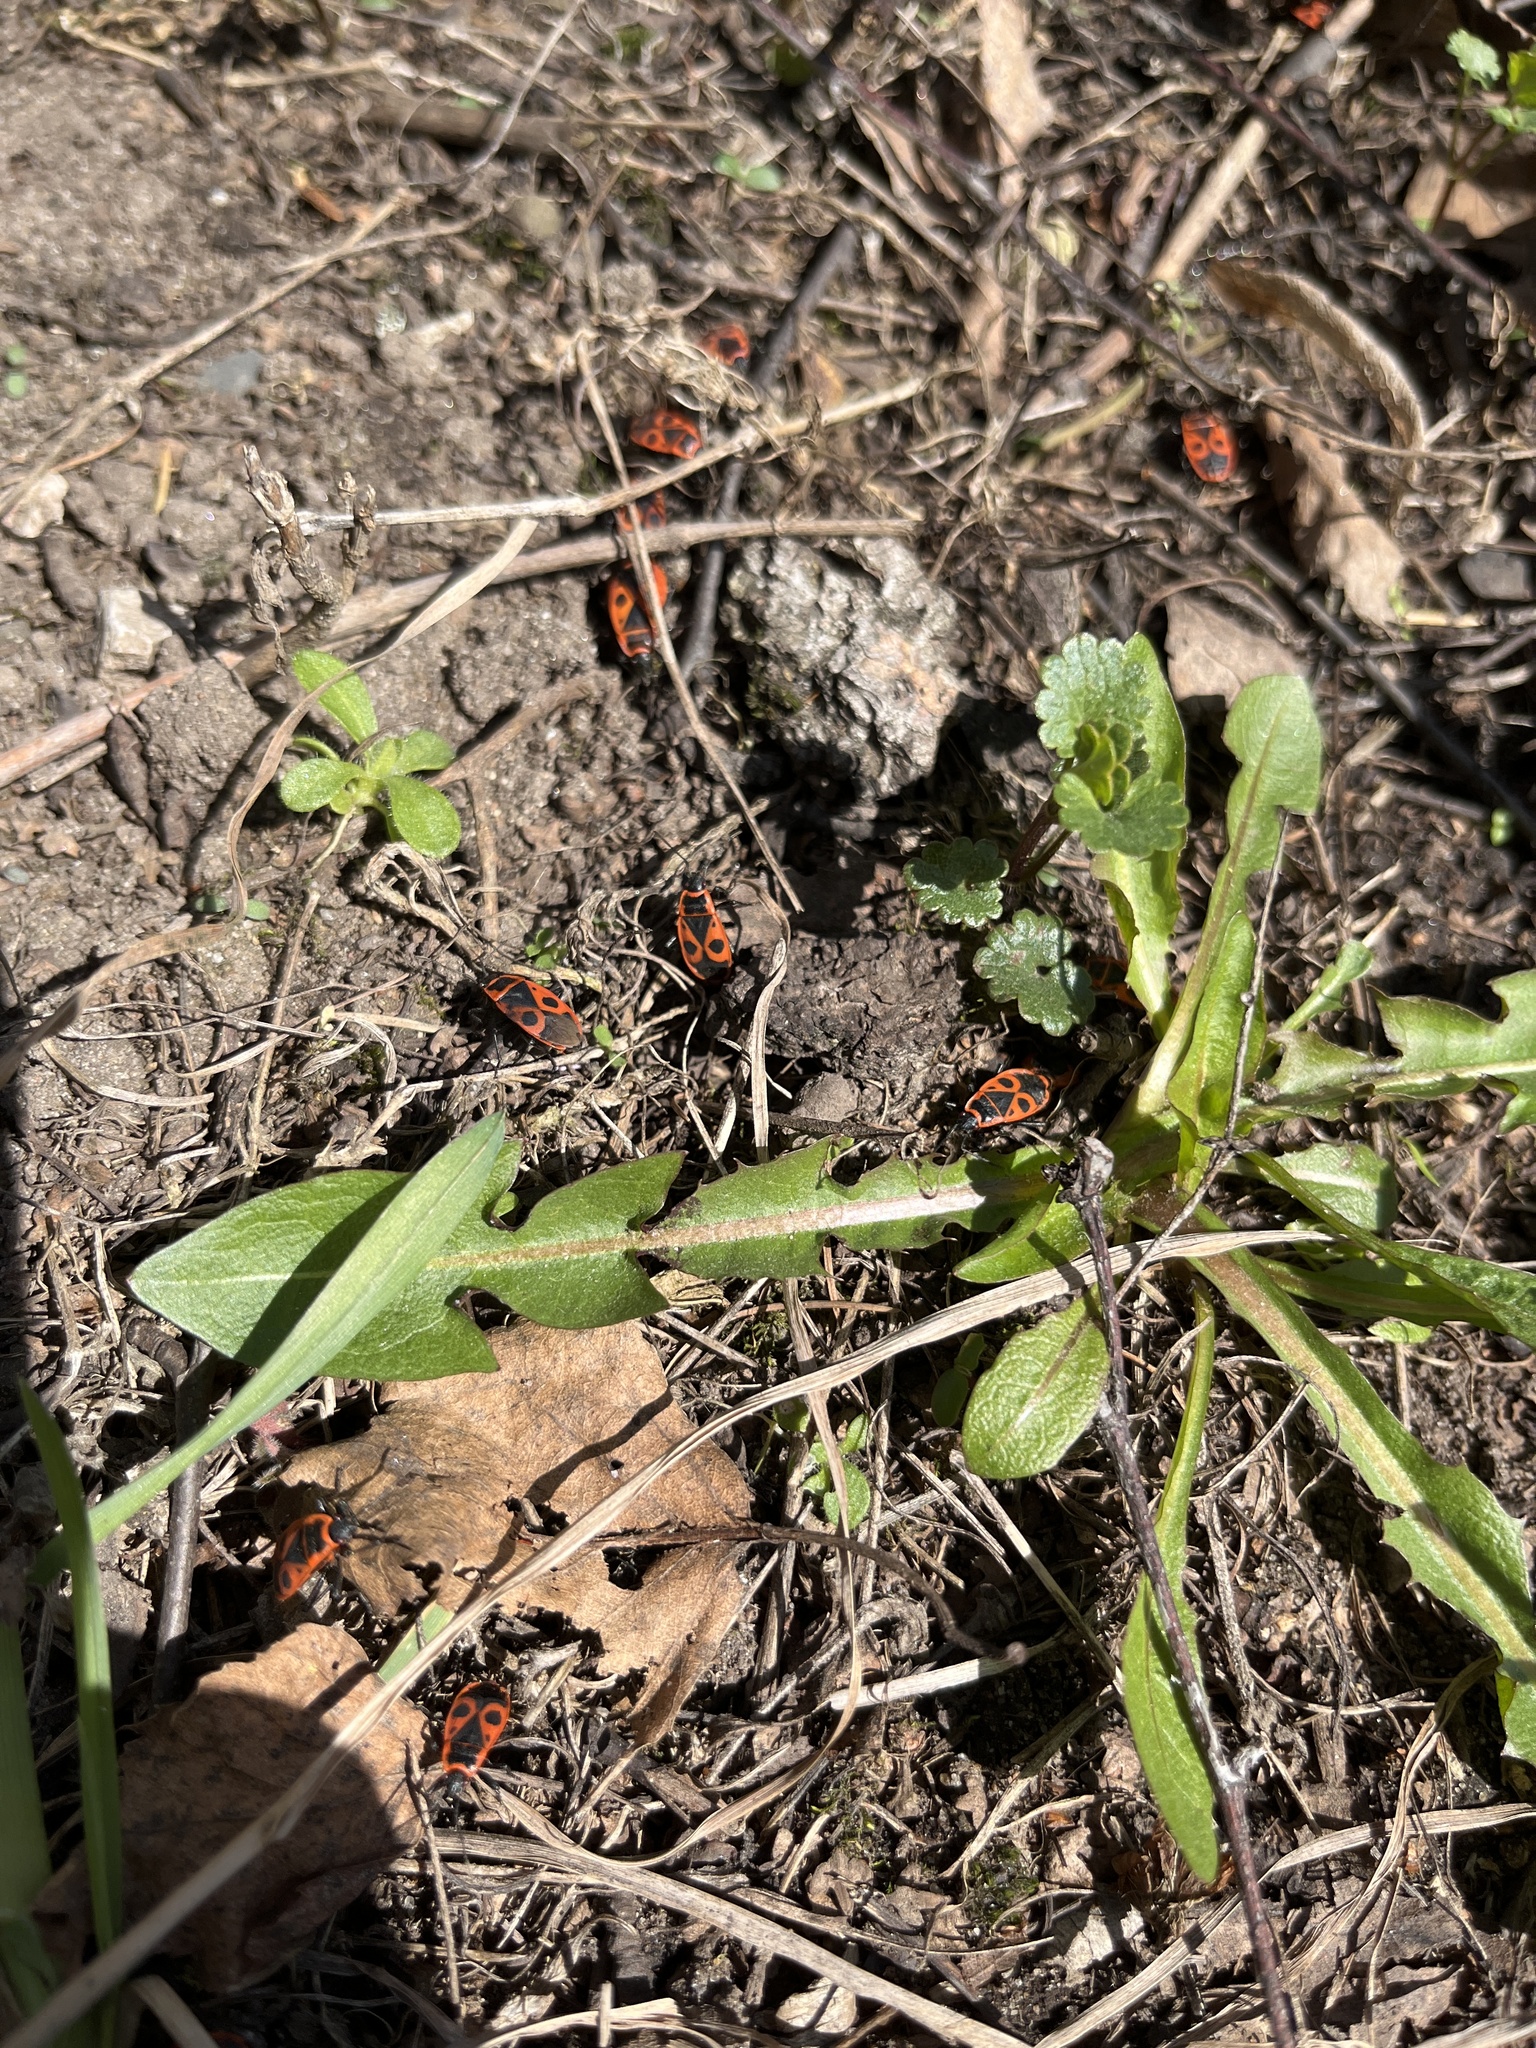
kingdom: Animalia
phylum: Arthropoda
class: Insecta
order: Hemiptera
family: Pyrrhocoridae
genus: Pyrrhocoris
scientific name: Pyrrhocoris apterus
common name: Firebug
